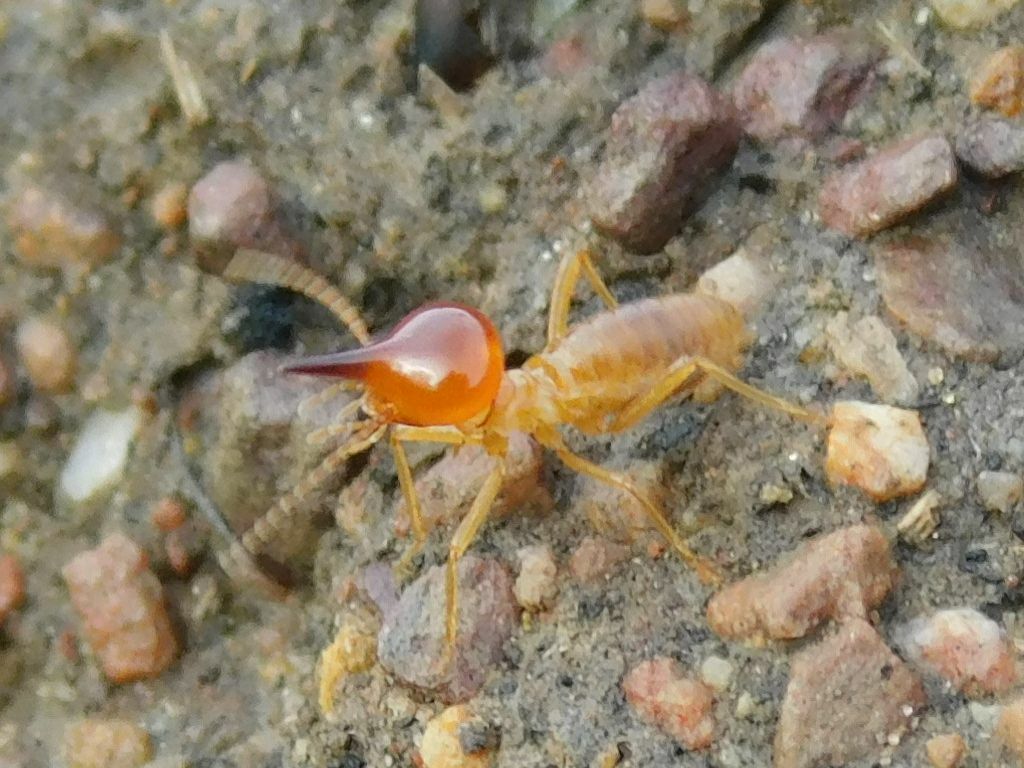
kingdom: Animalia
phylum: Arthropoda
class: Insecta
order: Blattodea
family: Termitidae
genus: Trinervitermes
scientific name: Trinervitermes trinervoides
